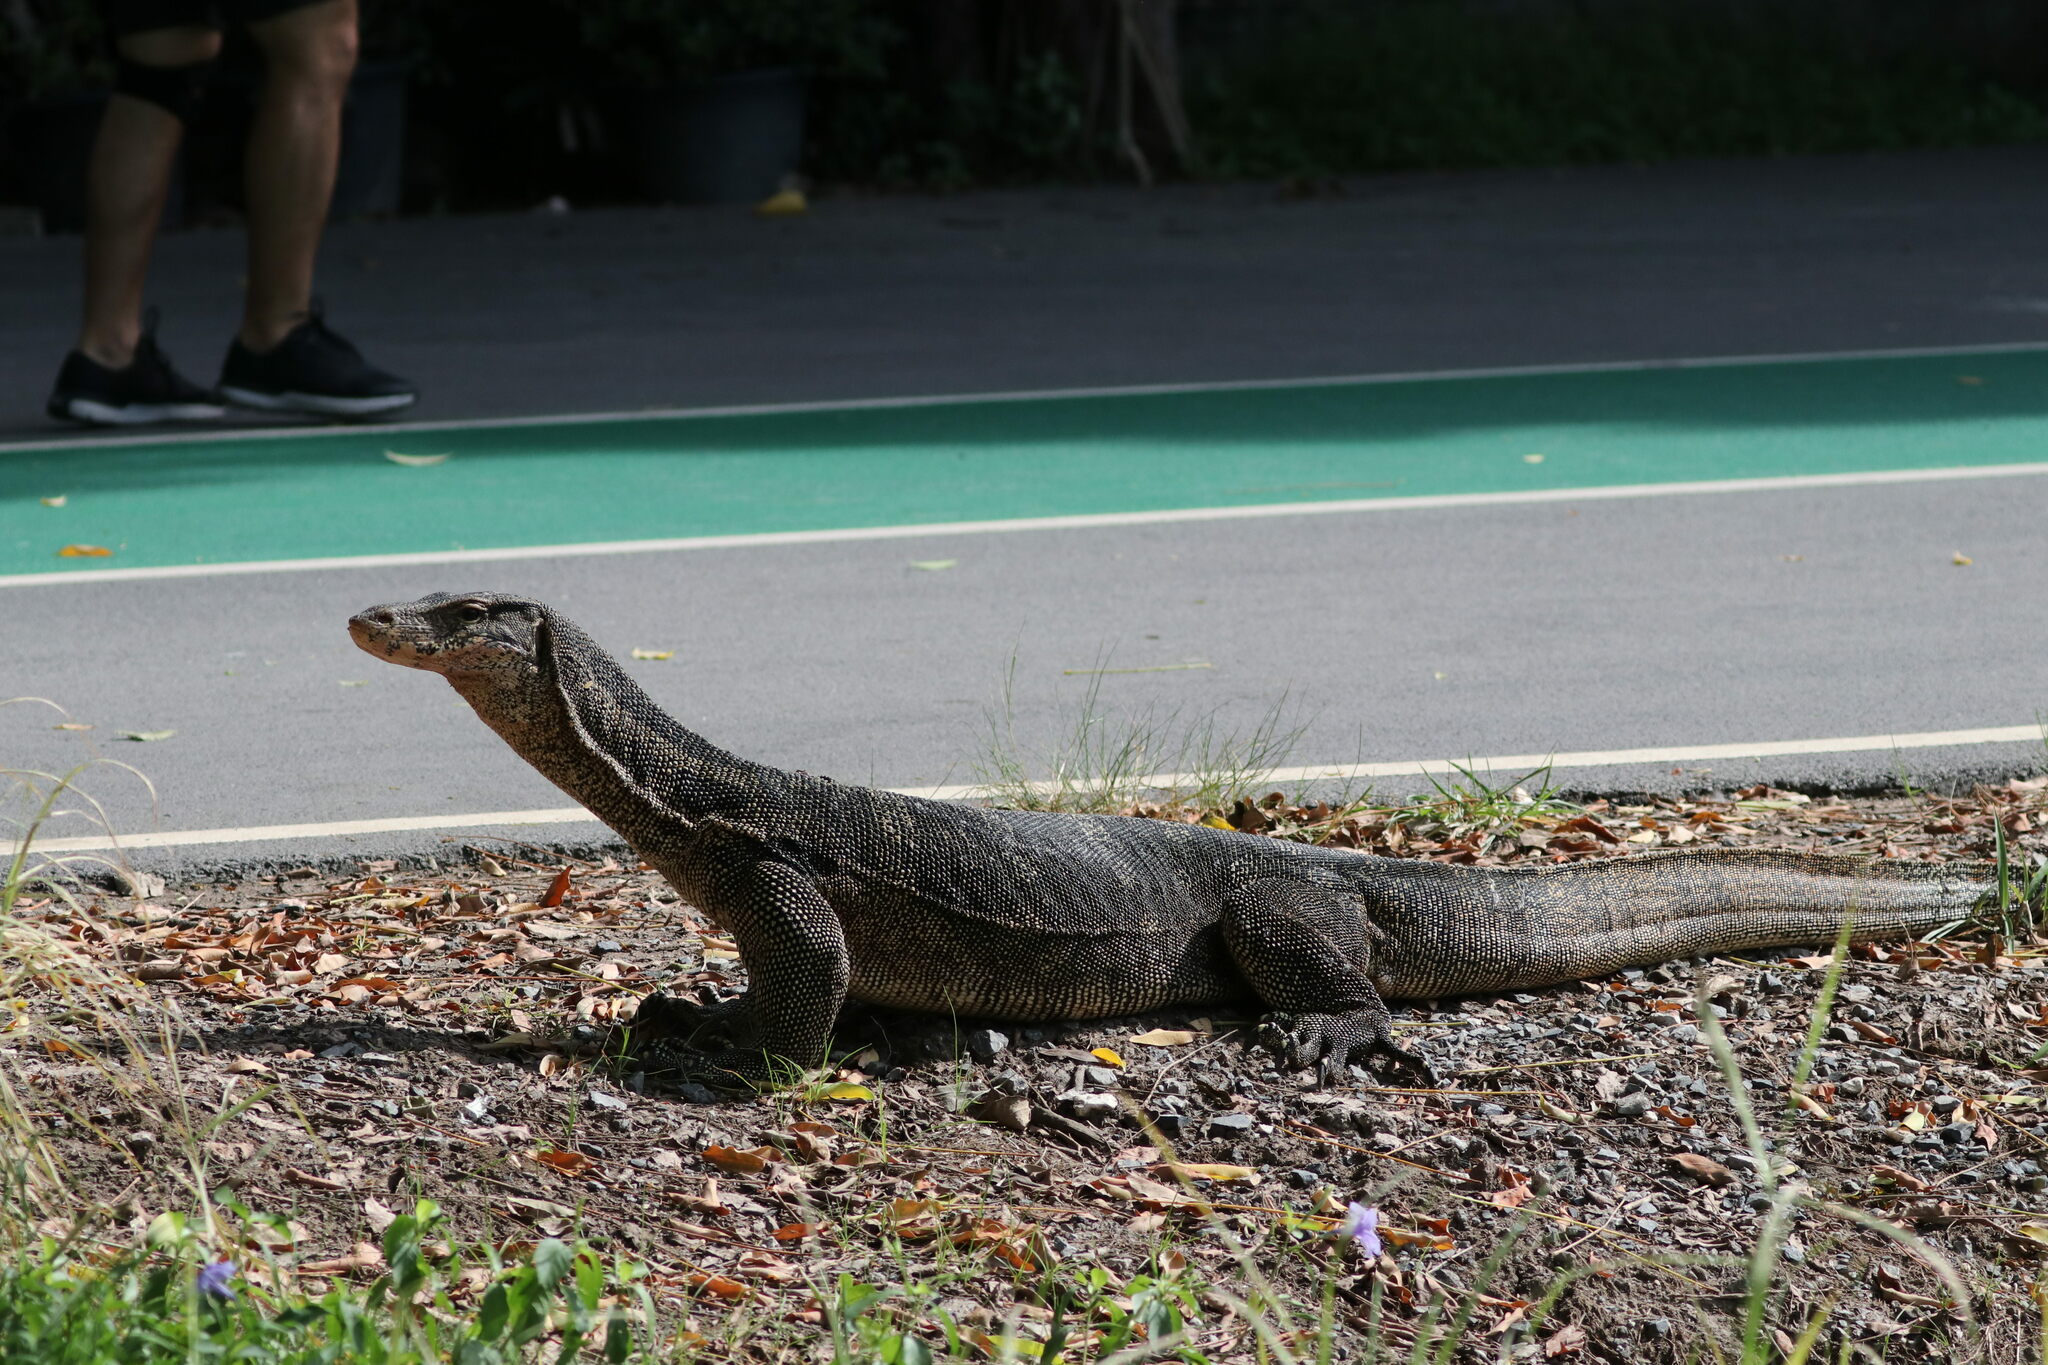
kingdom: Animalia
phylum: Chordata
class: Squamata
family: Varanidae
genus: Varanus
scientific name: Varanus salvator
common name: Common water monitor
